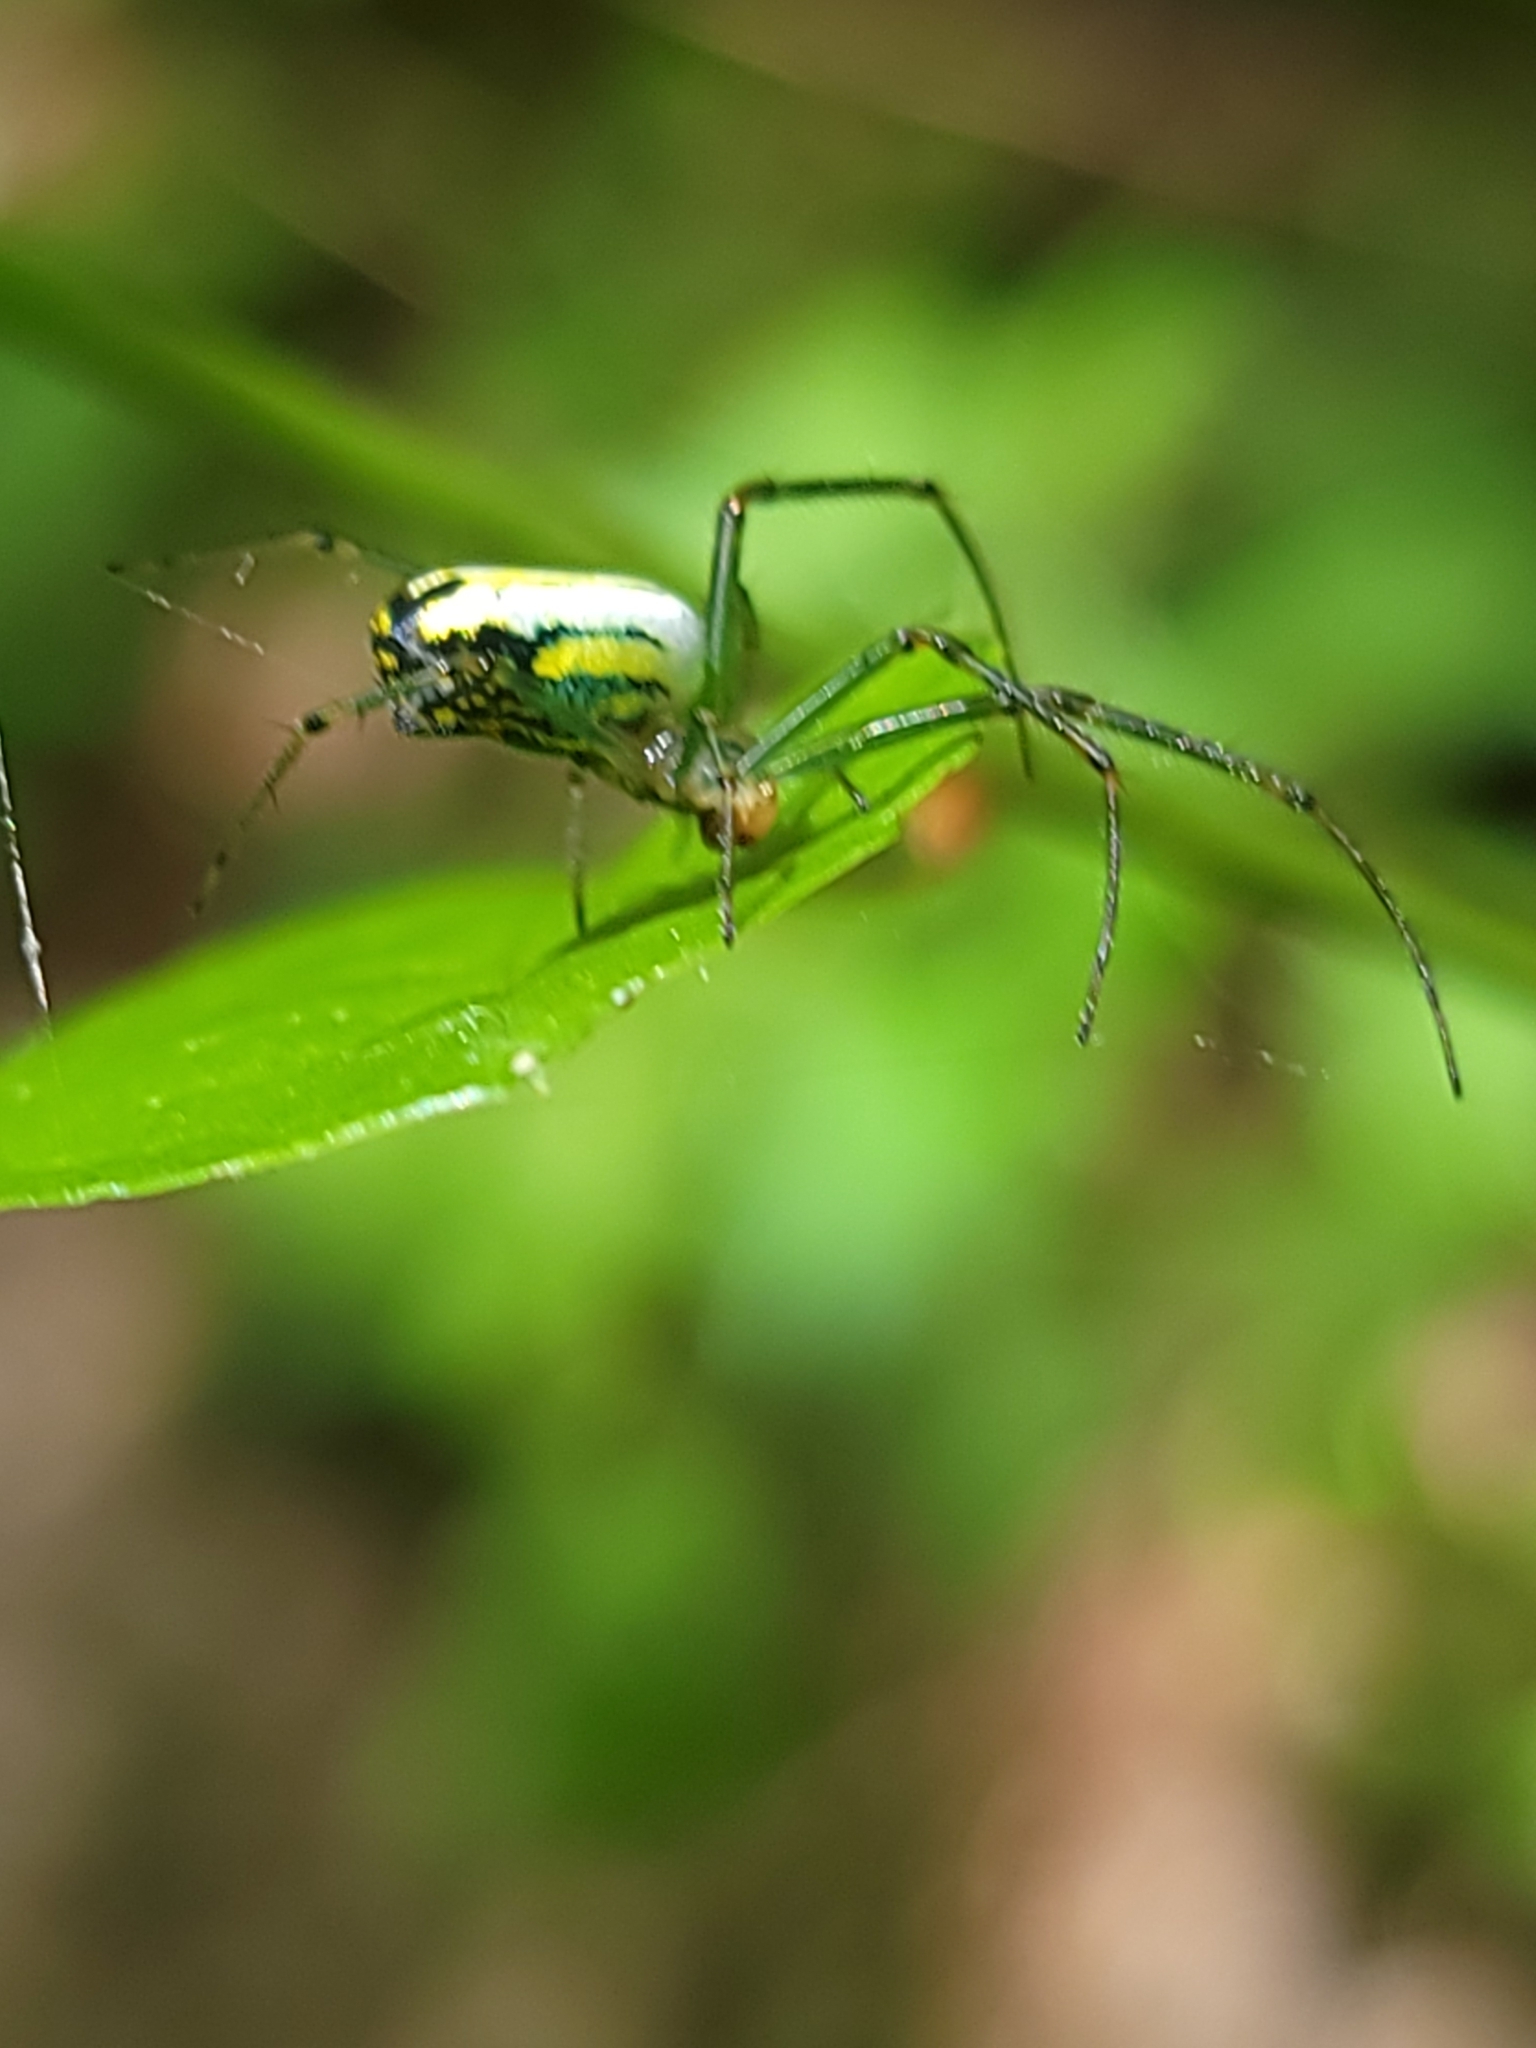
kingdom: Animalia
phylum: Arthropoda
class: Arachnida
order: Araneae
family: Tetragnathidae
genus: Leucauge
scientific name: Leucauge venusta
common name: Longjawed orb weavers
